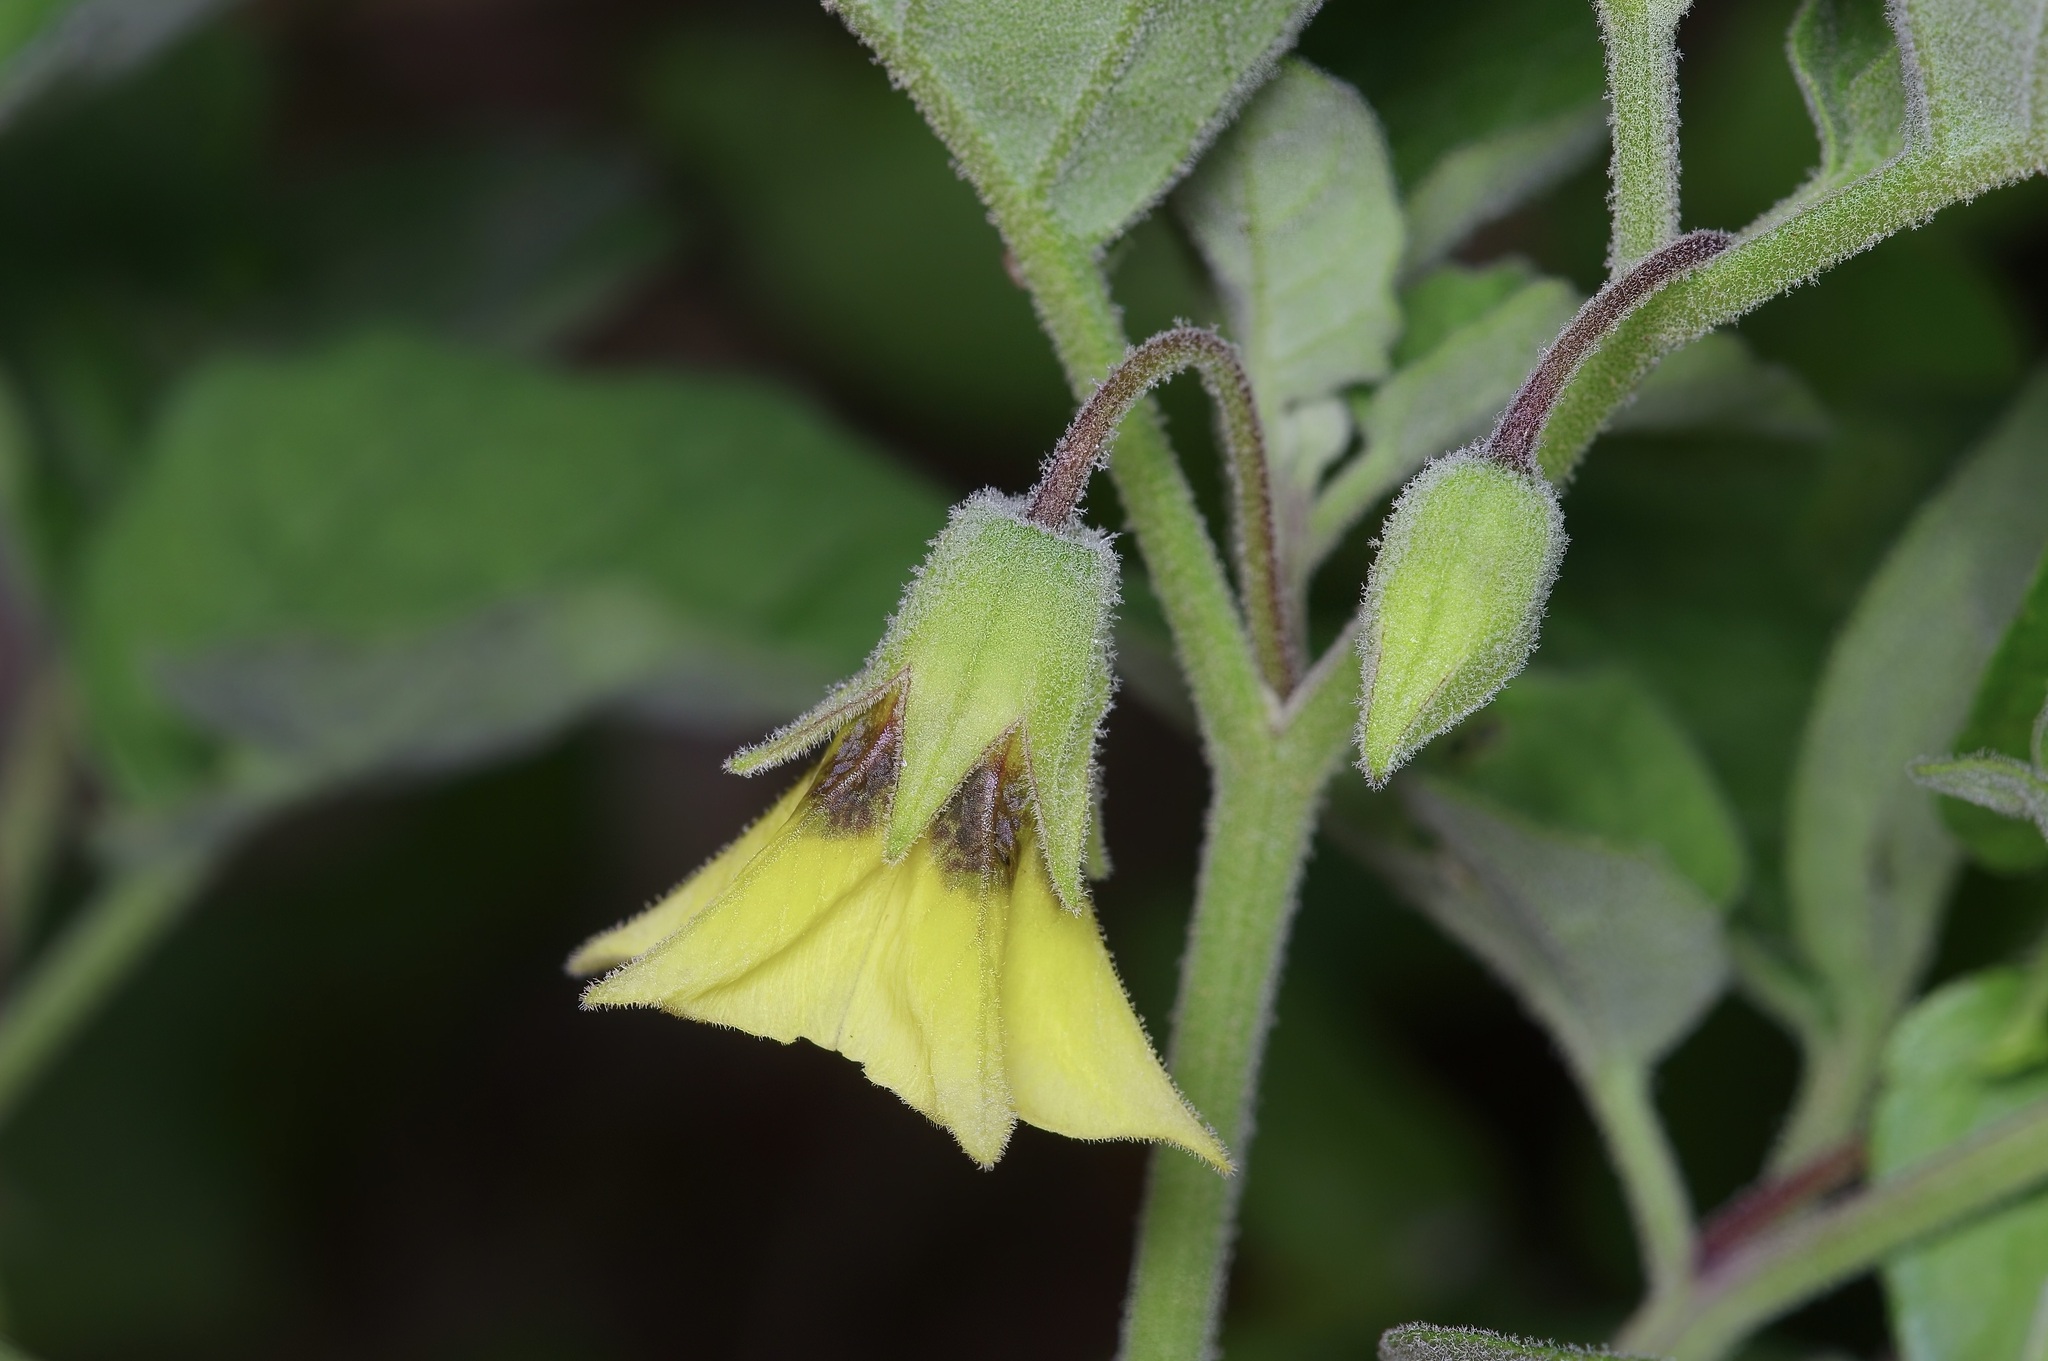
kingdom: Plantae
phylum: Tracheophyta
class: Magnoliopsida
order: Solanales
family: Solanaceae
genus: Physalis
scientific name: Physalis cinerascens
